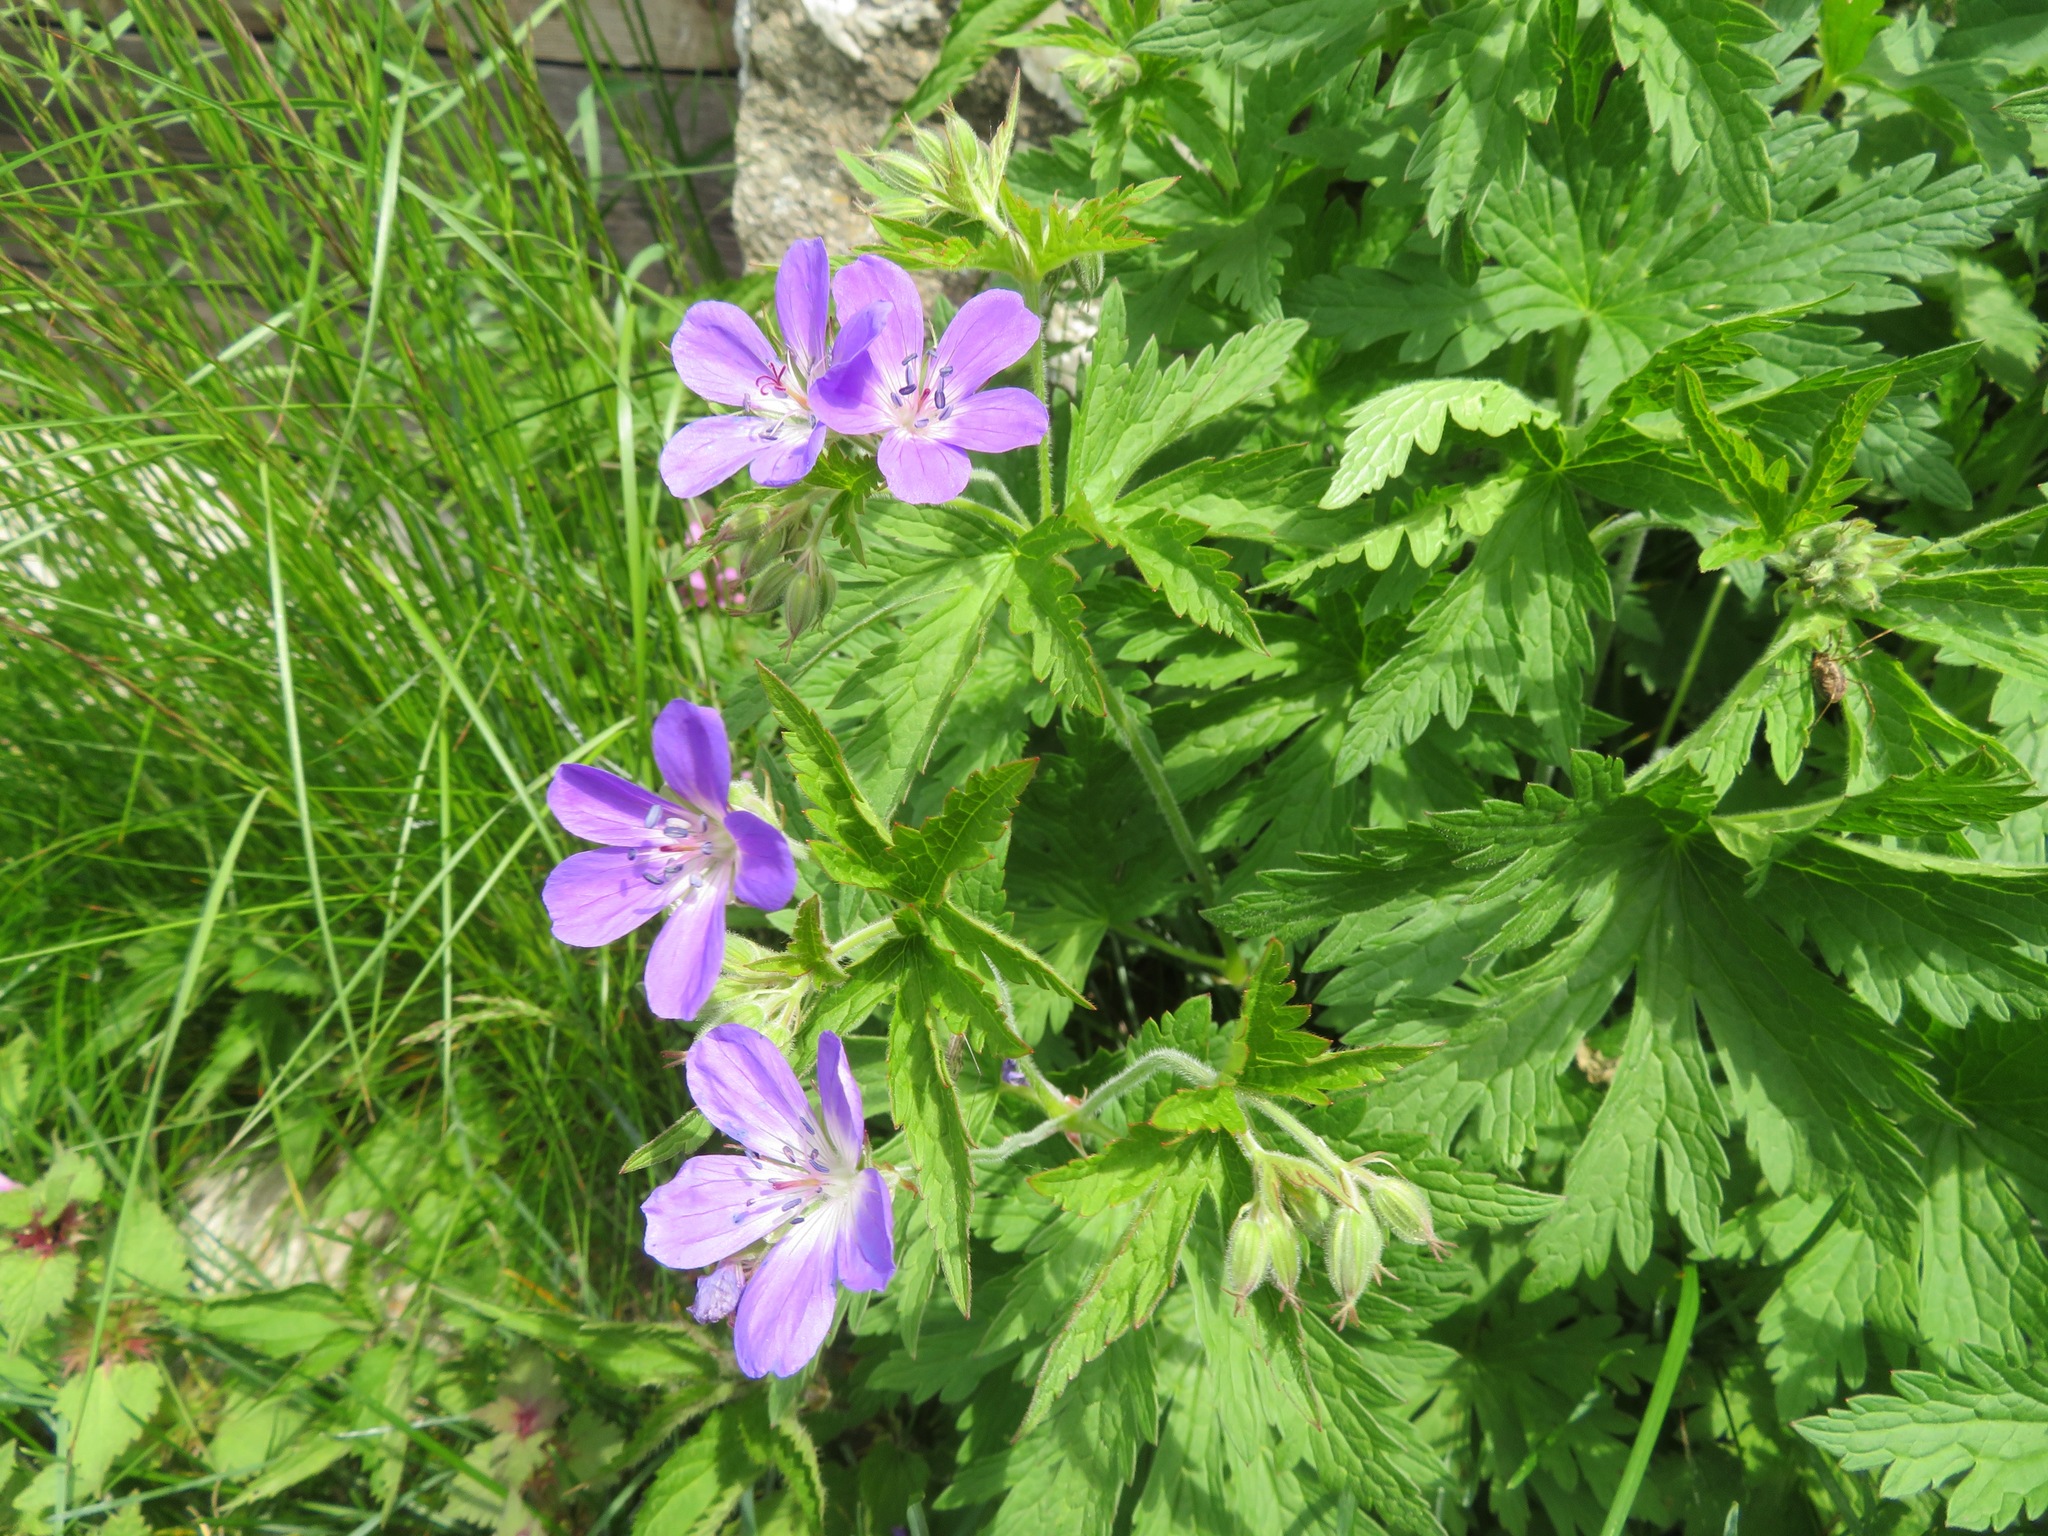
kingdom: Plantae
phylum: Tracheophyta
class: Magnoliopsida
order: Geraniales
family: Geraniaceae
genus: Geranium
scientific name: Geranium sylvaticum
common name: Wood crane's-bill
